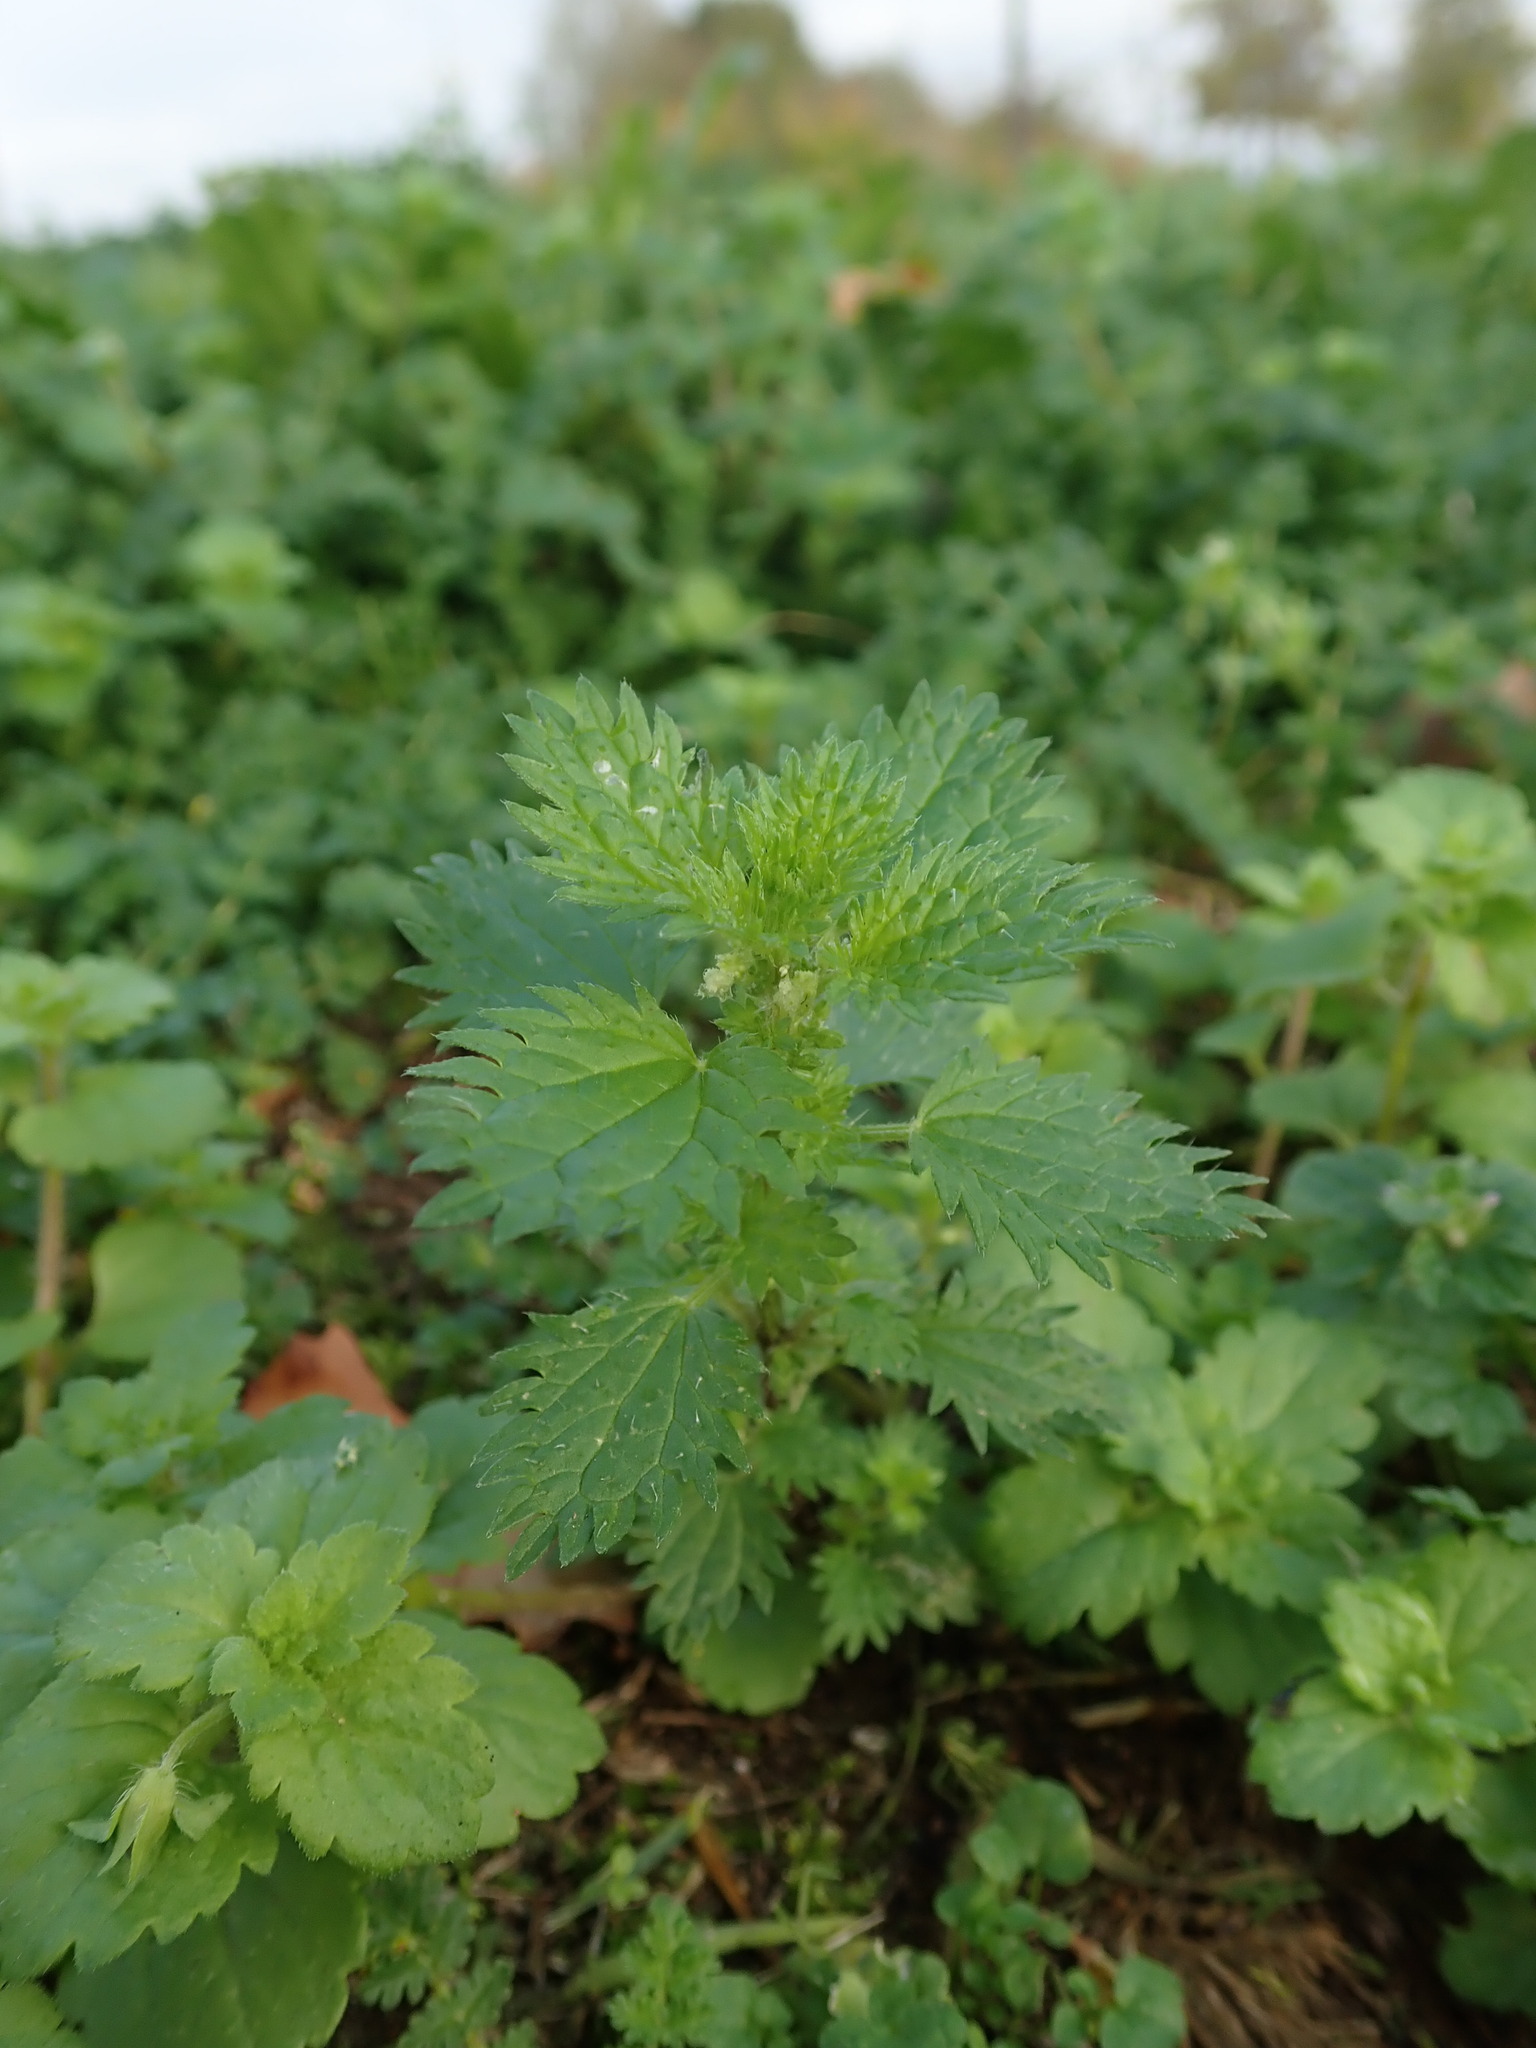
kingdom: Plantae
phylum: Tracheophyta
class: Magnoliopsida
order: Rosales
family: Urticaceae
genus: Urtica
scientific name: Urtica urens
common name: Dwarf nettle
